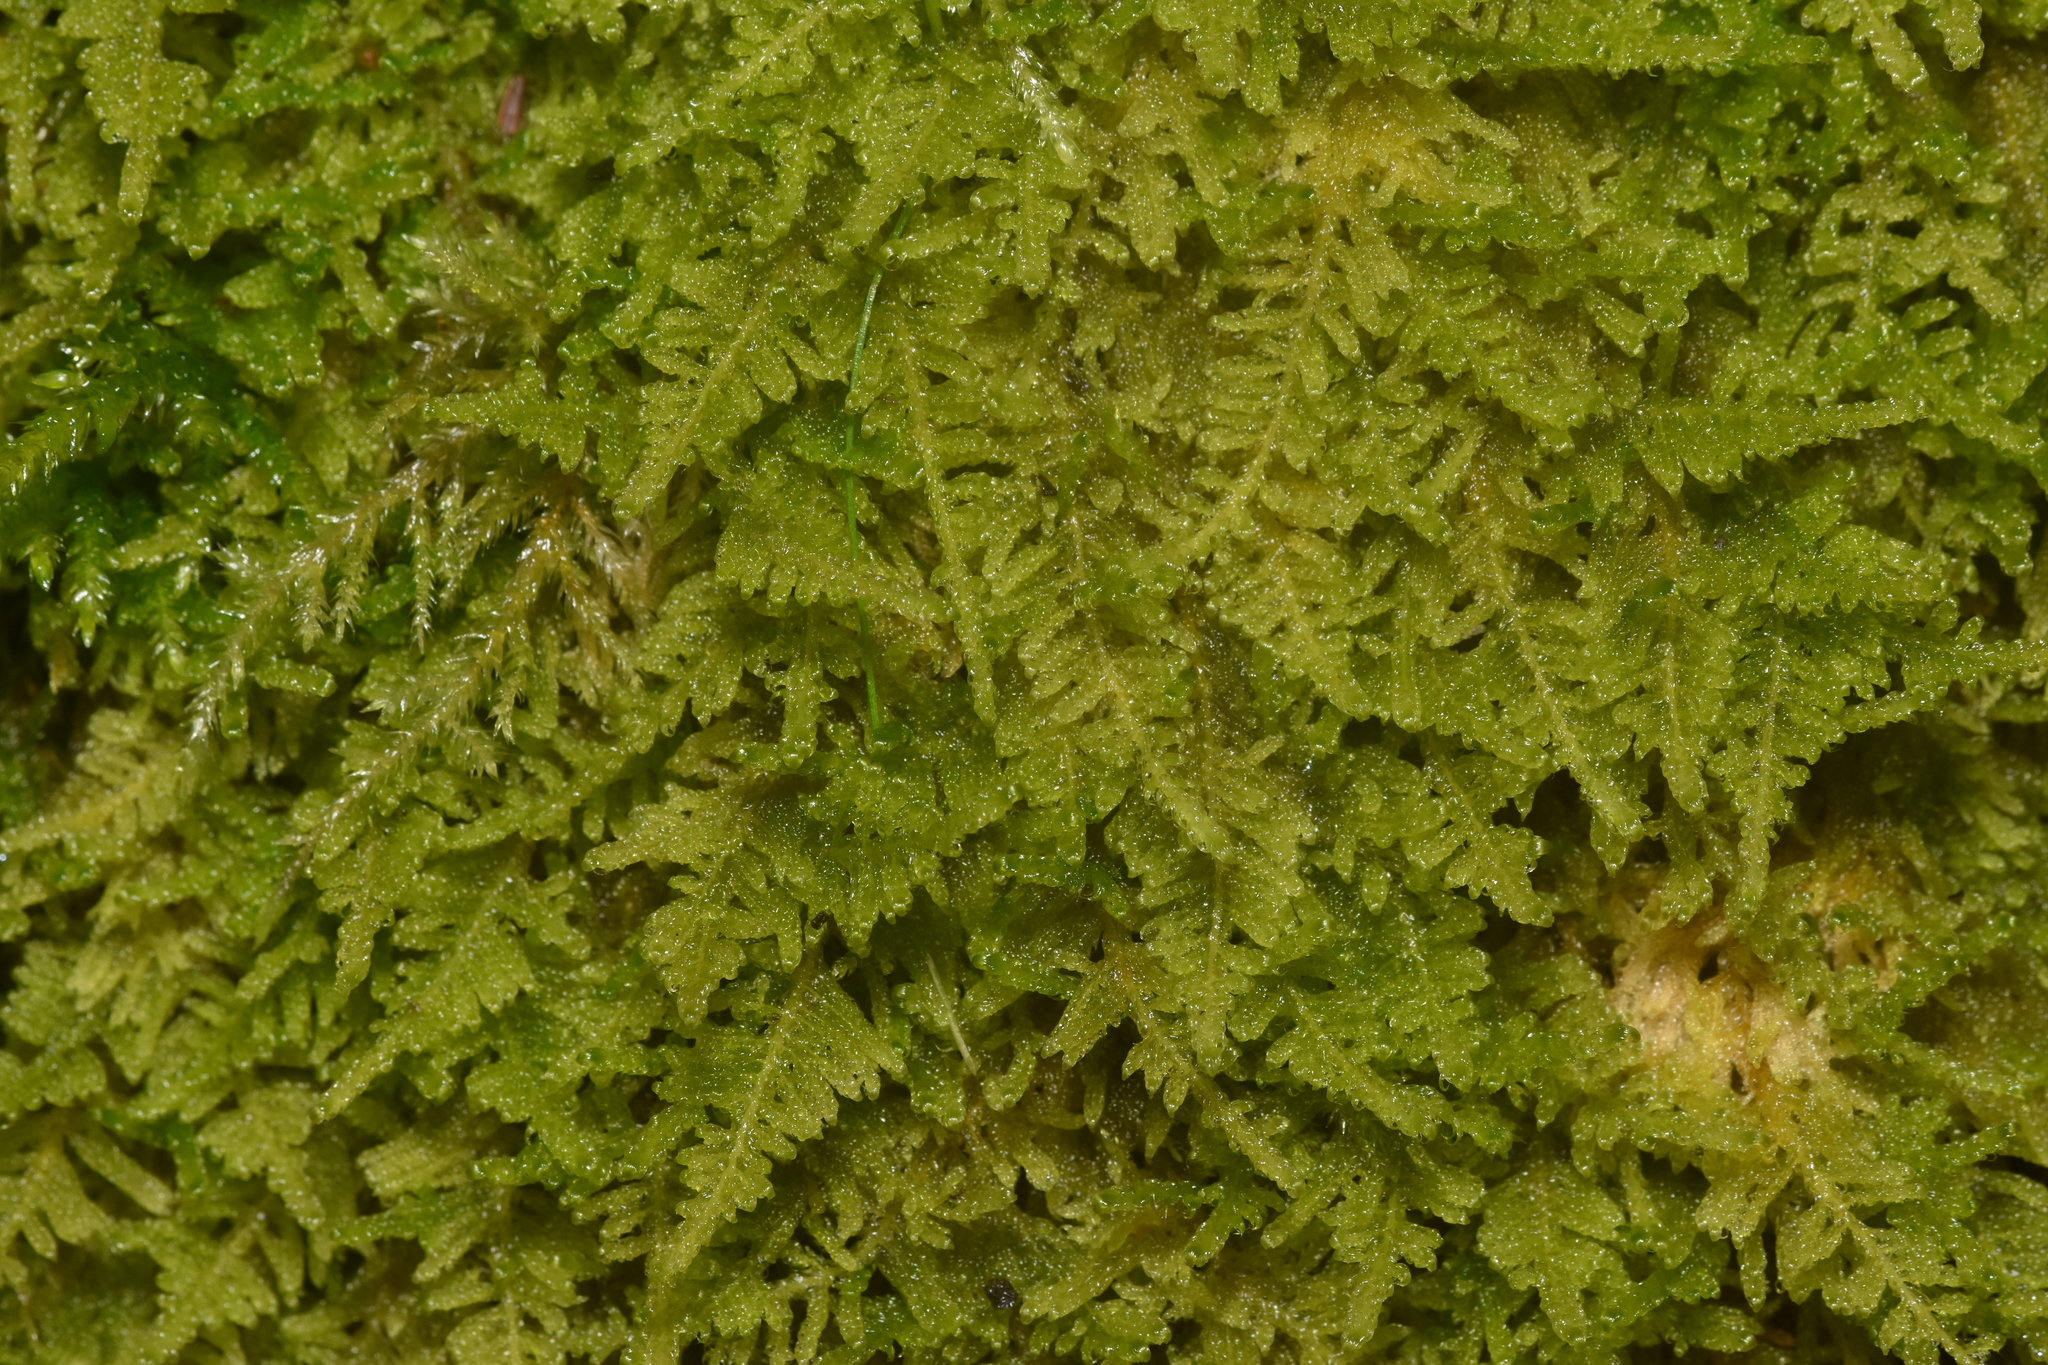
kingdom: Plantae
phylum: Bryophyta
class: Bryopsida
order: Hypnales
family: Stereodontaceae
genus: Stereodon
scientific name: Stereodon subimponens
